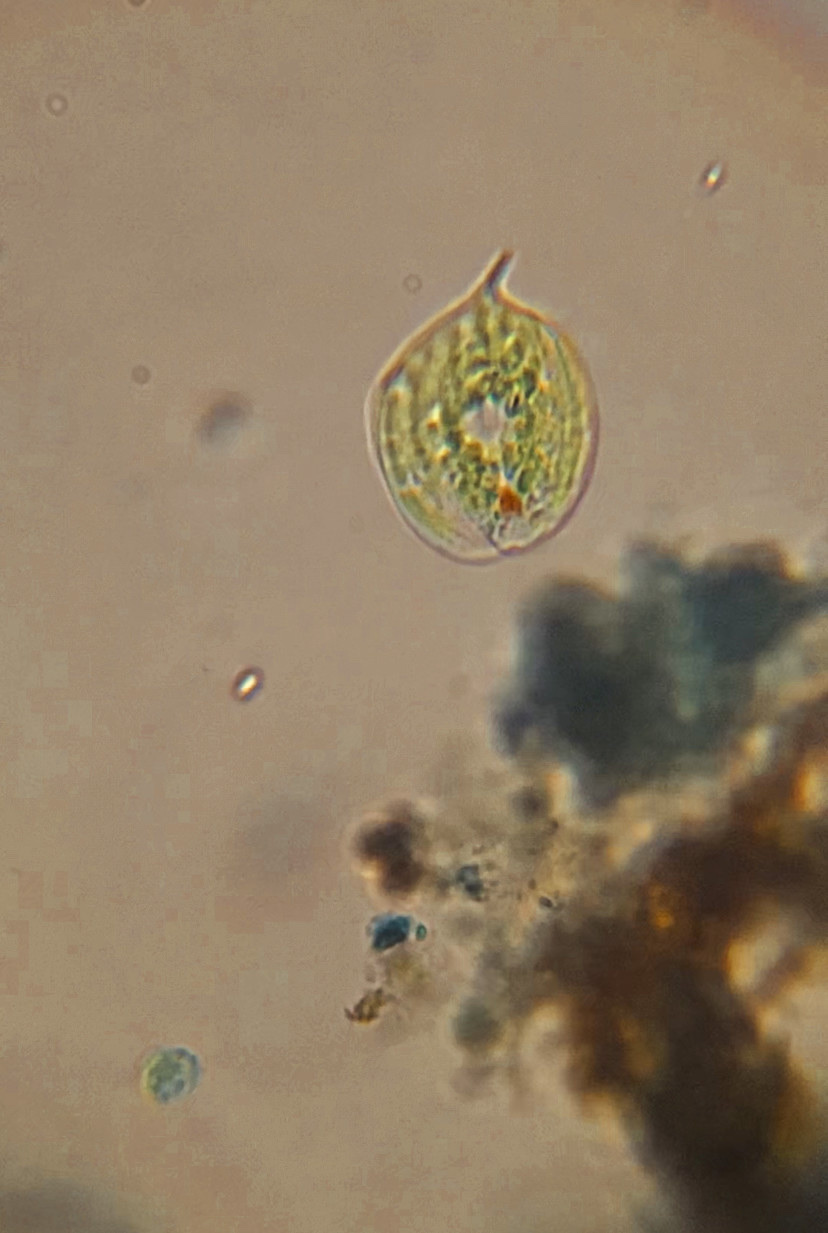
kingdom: Protozoa
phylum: Euglenozoa
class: Euglenoidea
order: Euglenida
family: Phacidae
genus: Phacus
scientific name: Phacus circulatus
